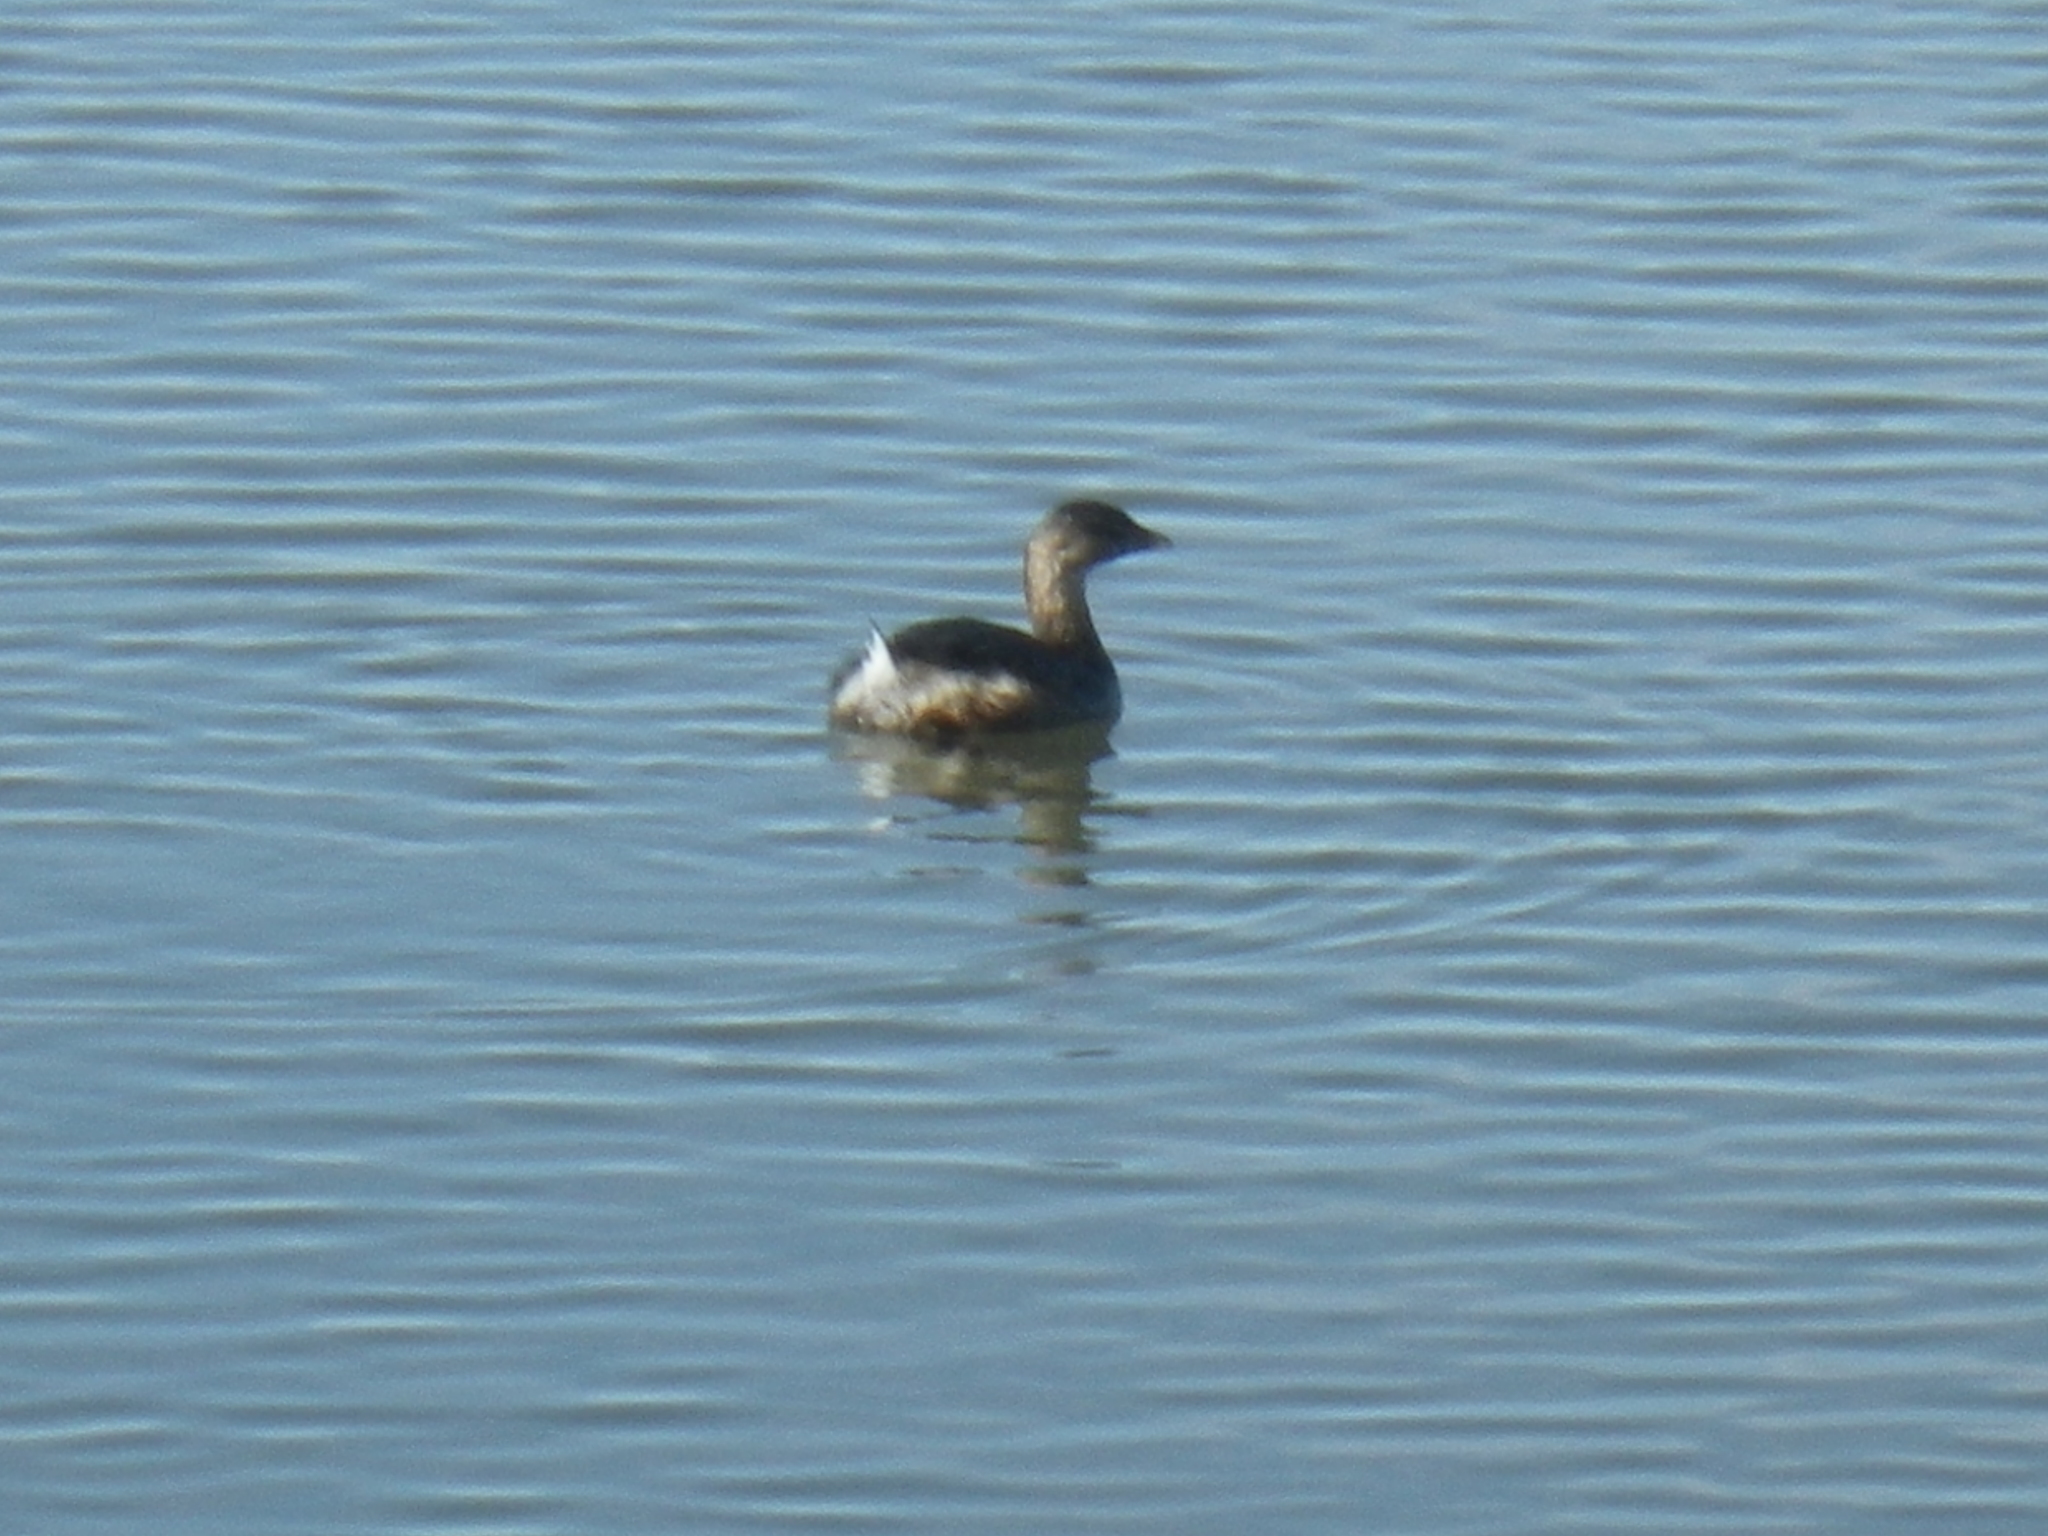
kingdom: Animalia
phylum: Chordata
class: Aves
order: Podicipediformes
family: Podicipedidae
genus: Podilymbus
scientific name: Podilymbus podiceps
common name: Pied-billed grebe
